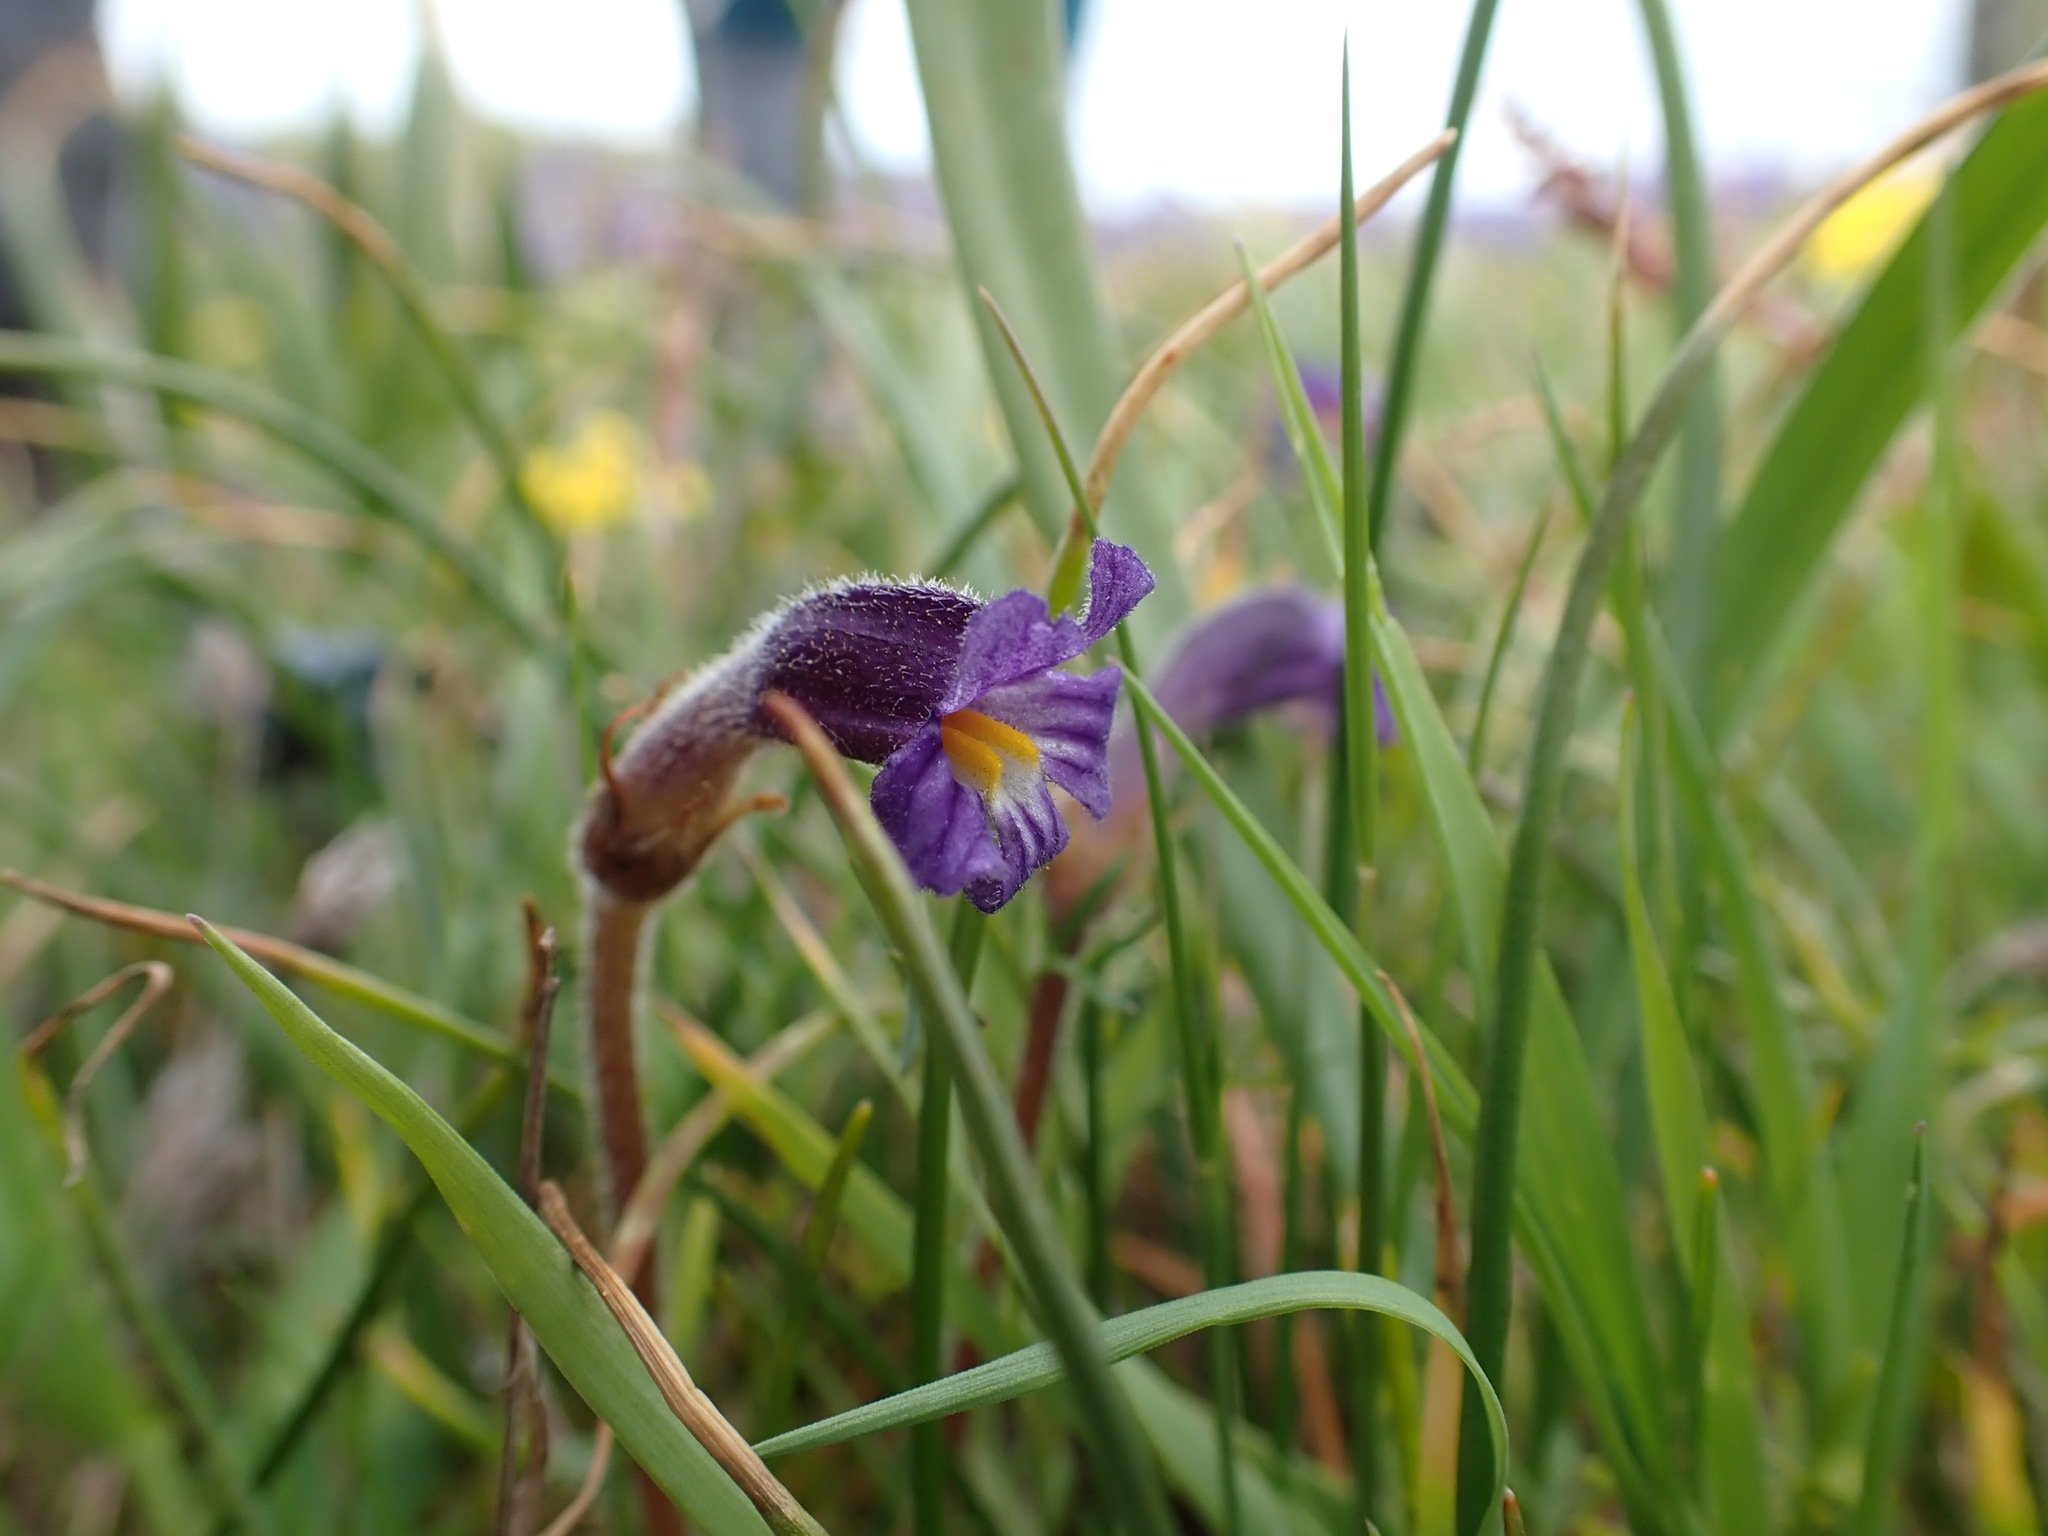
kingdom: Plantae
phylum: Tracheophyta
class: Magnoliopsida
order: Lamiales
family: Orobanchaceae
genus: Aphyllon
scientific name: Aphyllon uniflorum
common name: One-flowered broomrape
